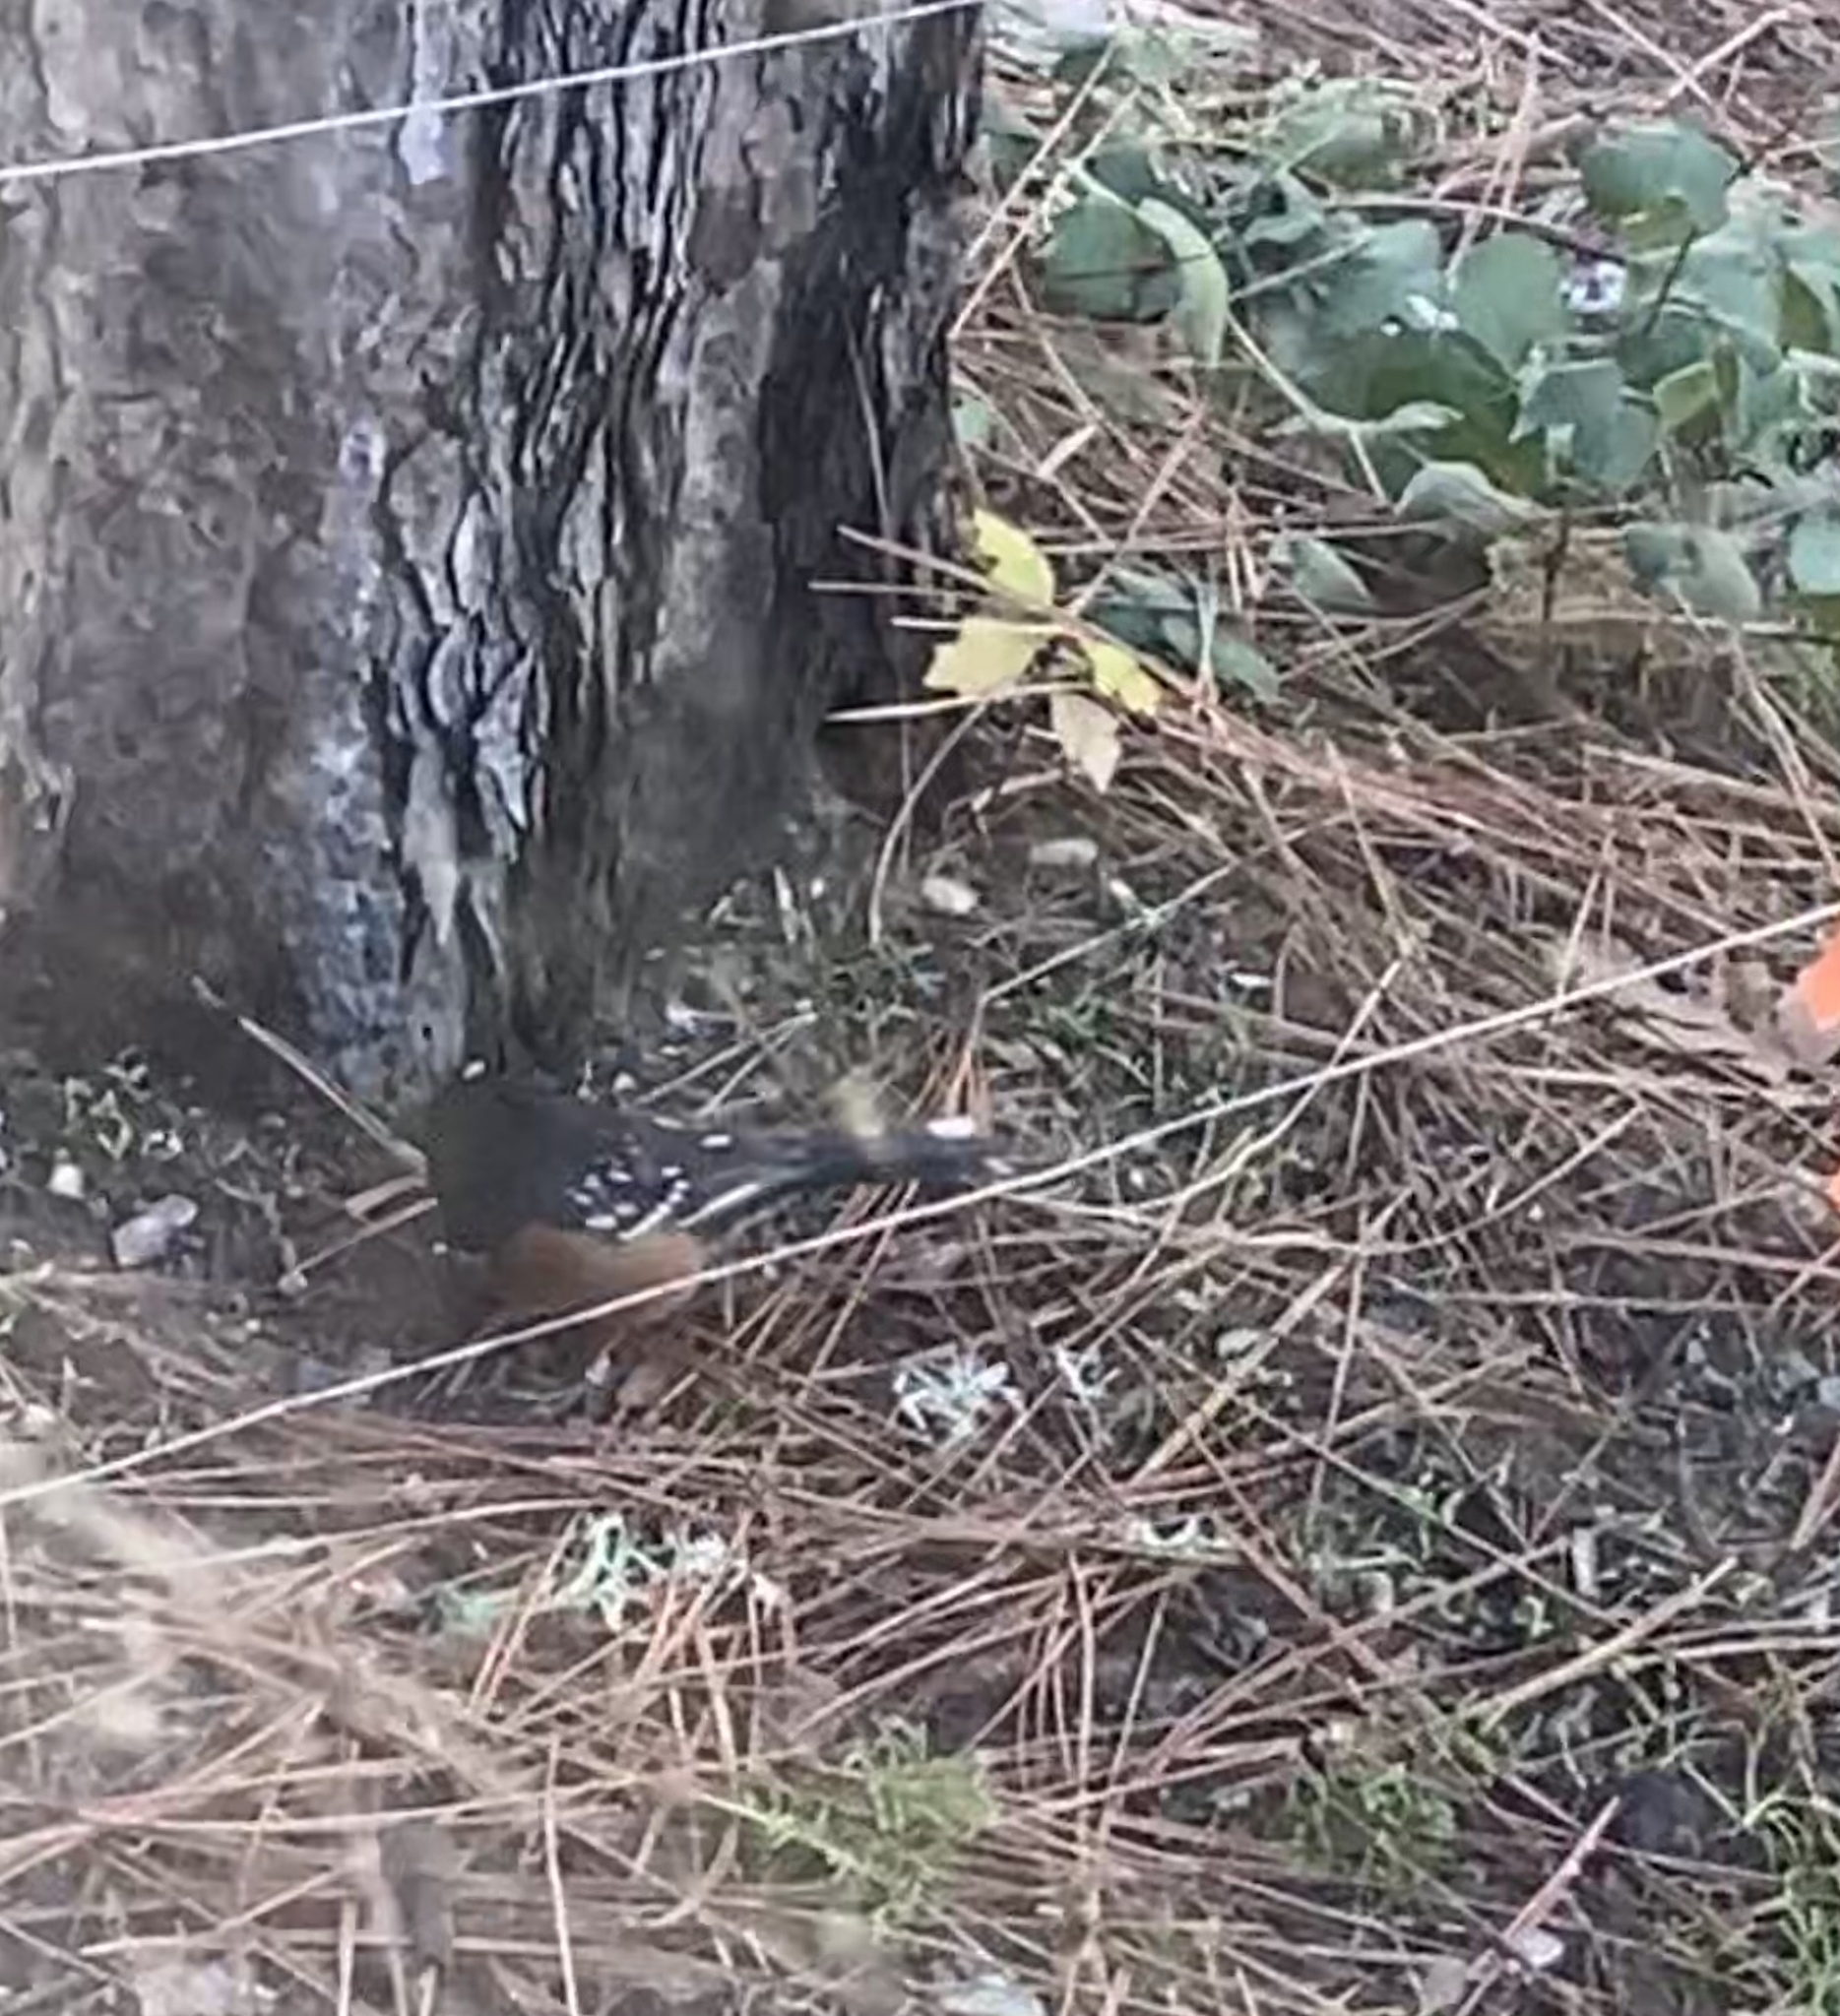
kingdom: Animalia
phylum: Chordata
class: Aves
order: Passeriformes
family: Passerellidae
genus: Pipilo
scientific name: Pipilo maculatus
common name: Spotted towhee
